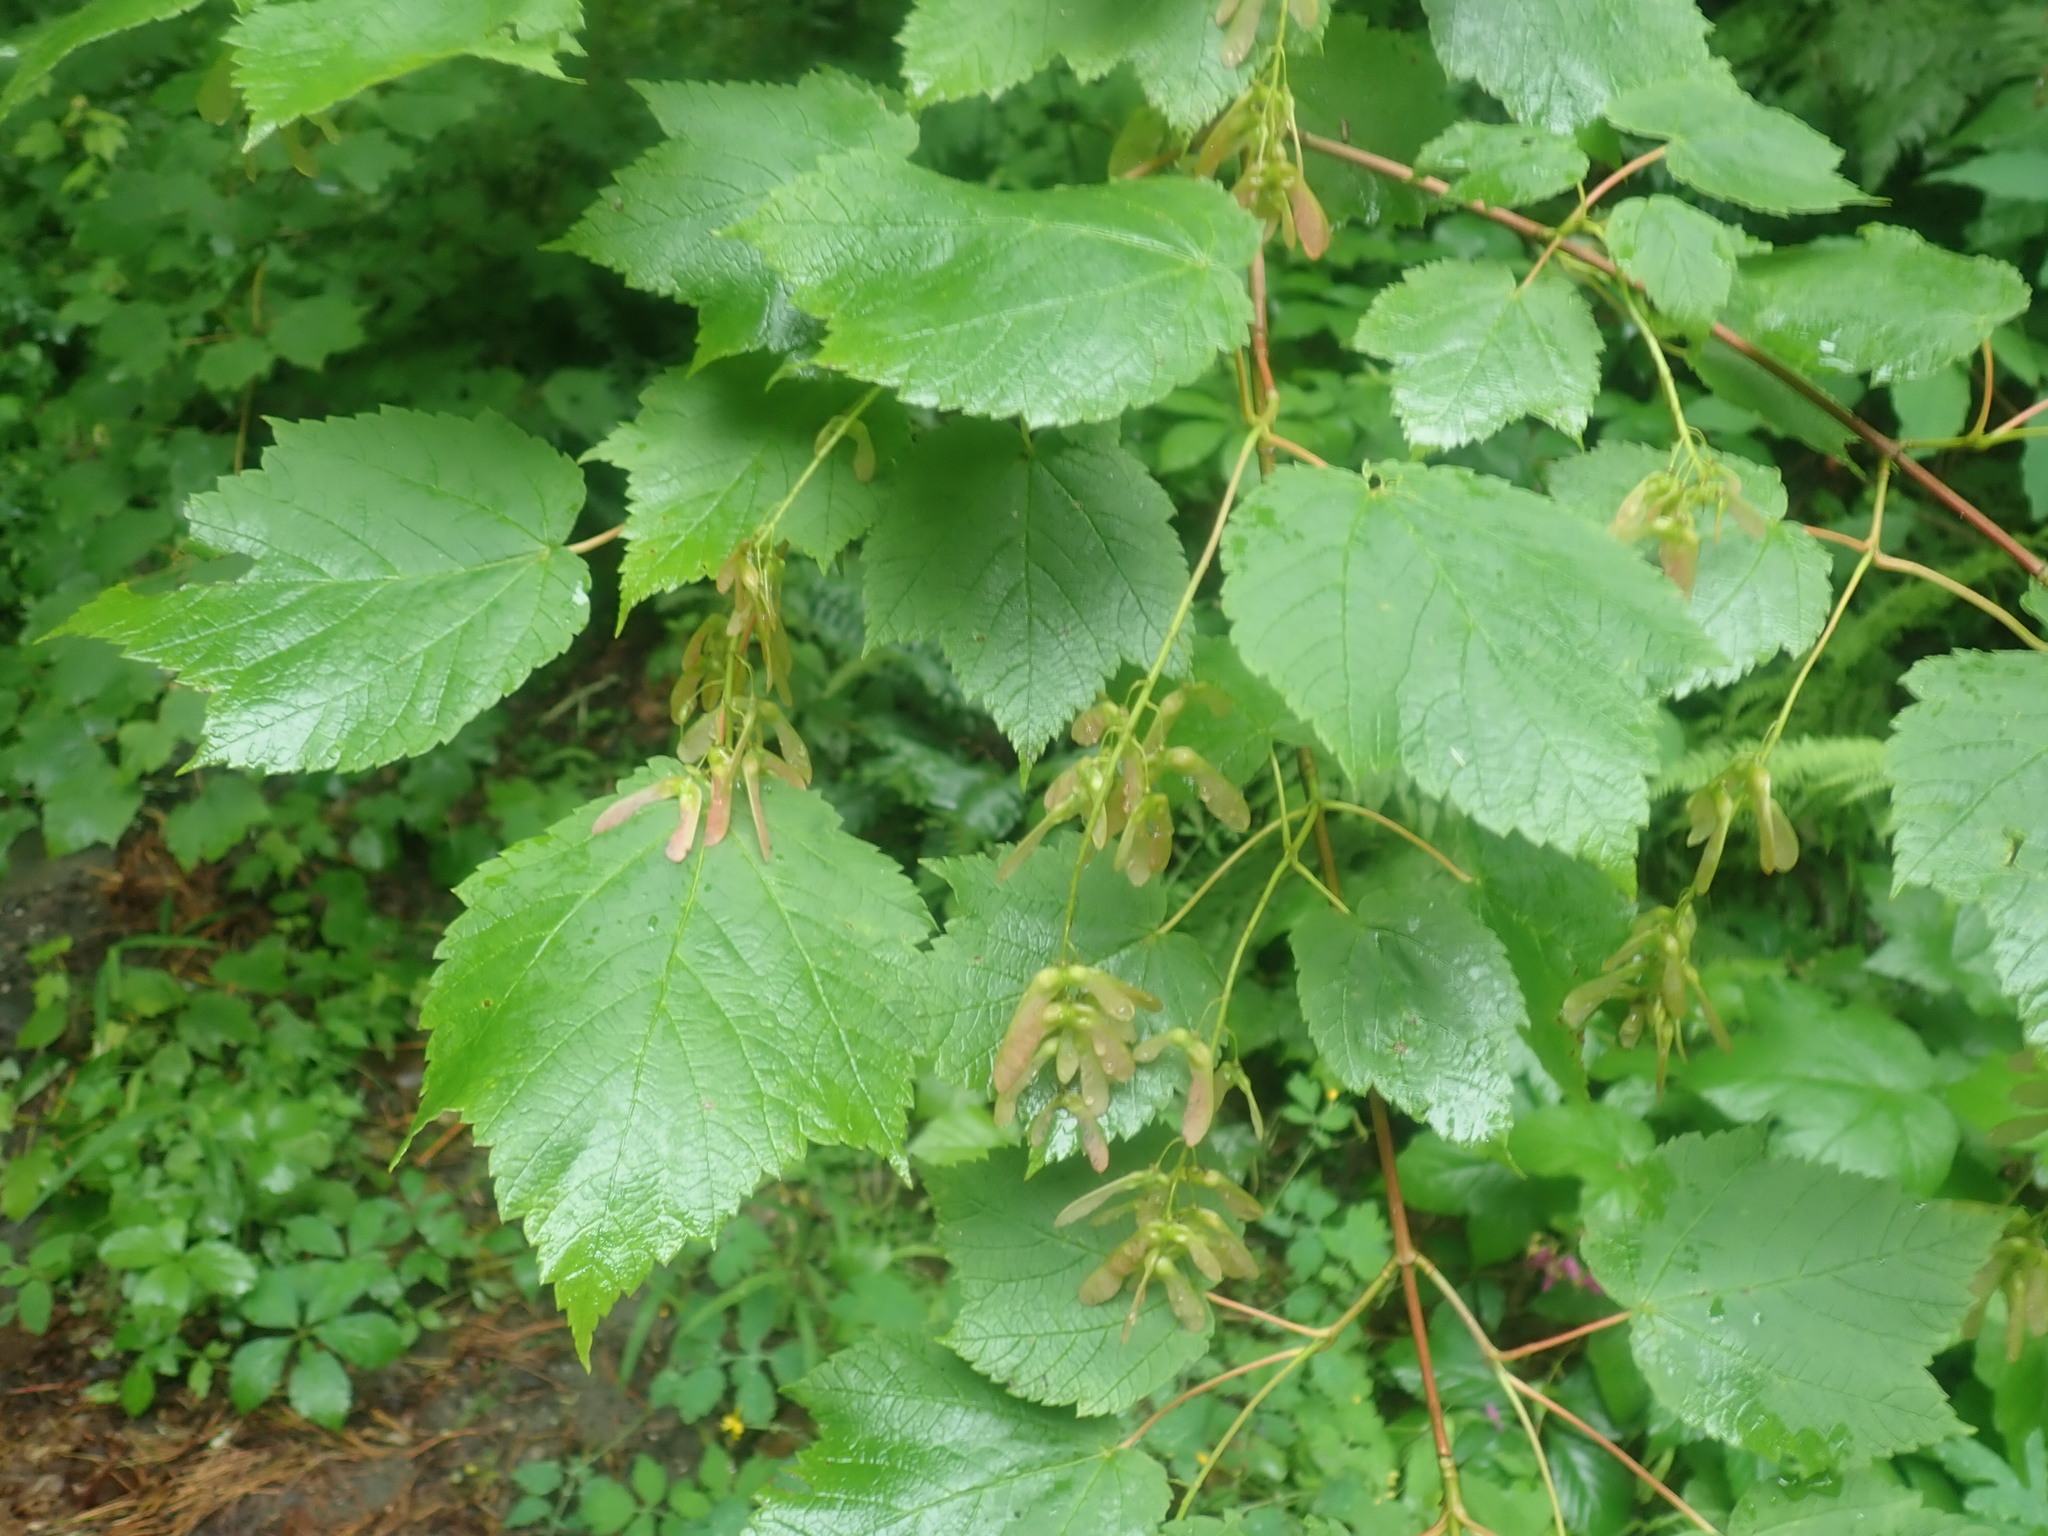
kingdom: Plantae
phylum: Tracheophyta
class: Magnoliopsida
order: Sapindales
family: Sapindaceae
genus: Acer
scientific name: Acer spicatum
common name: Mountain maple
